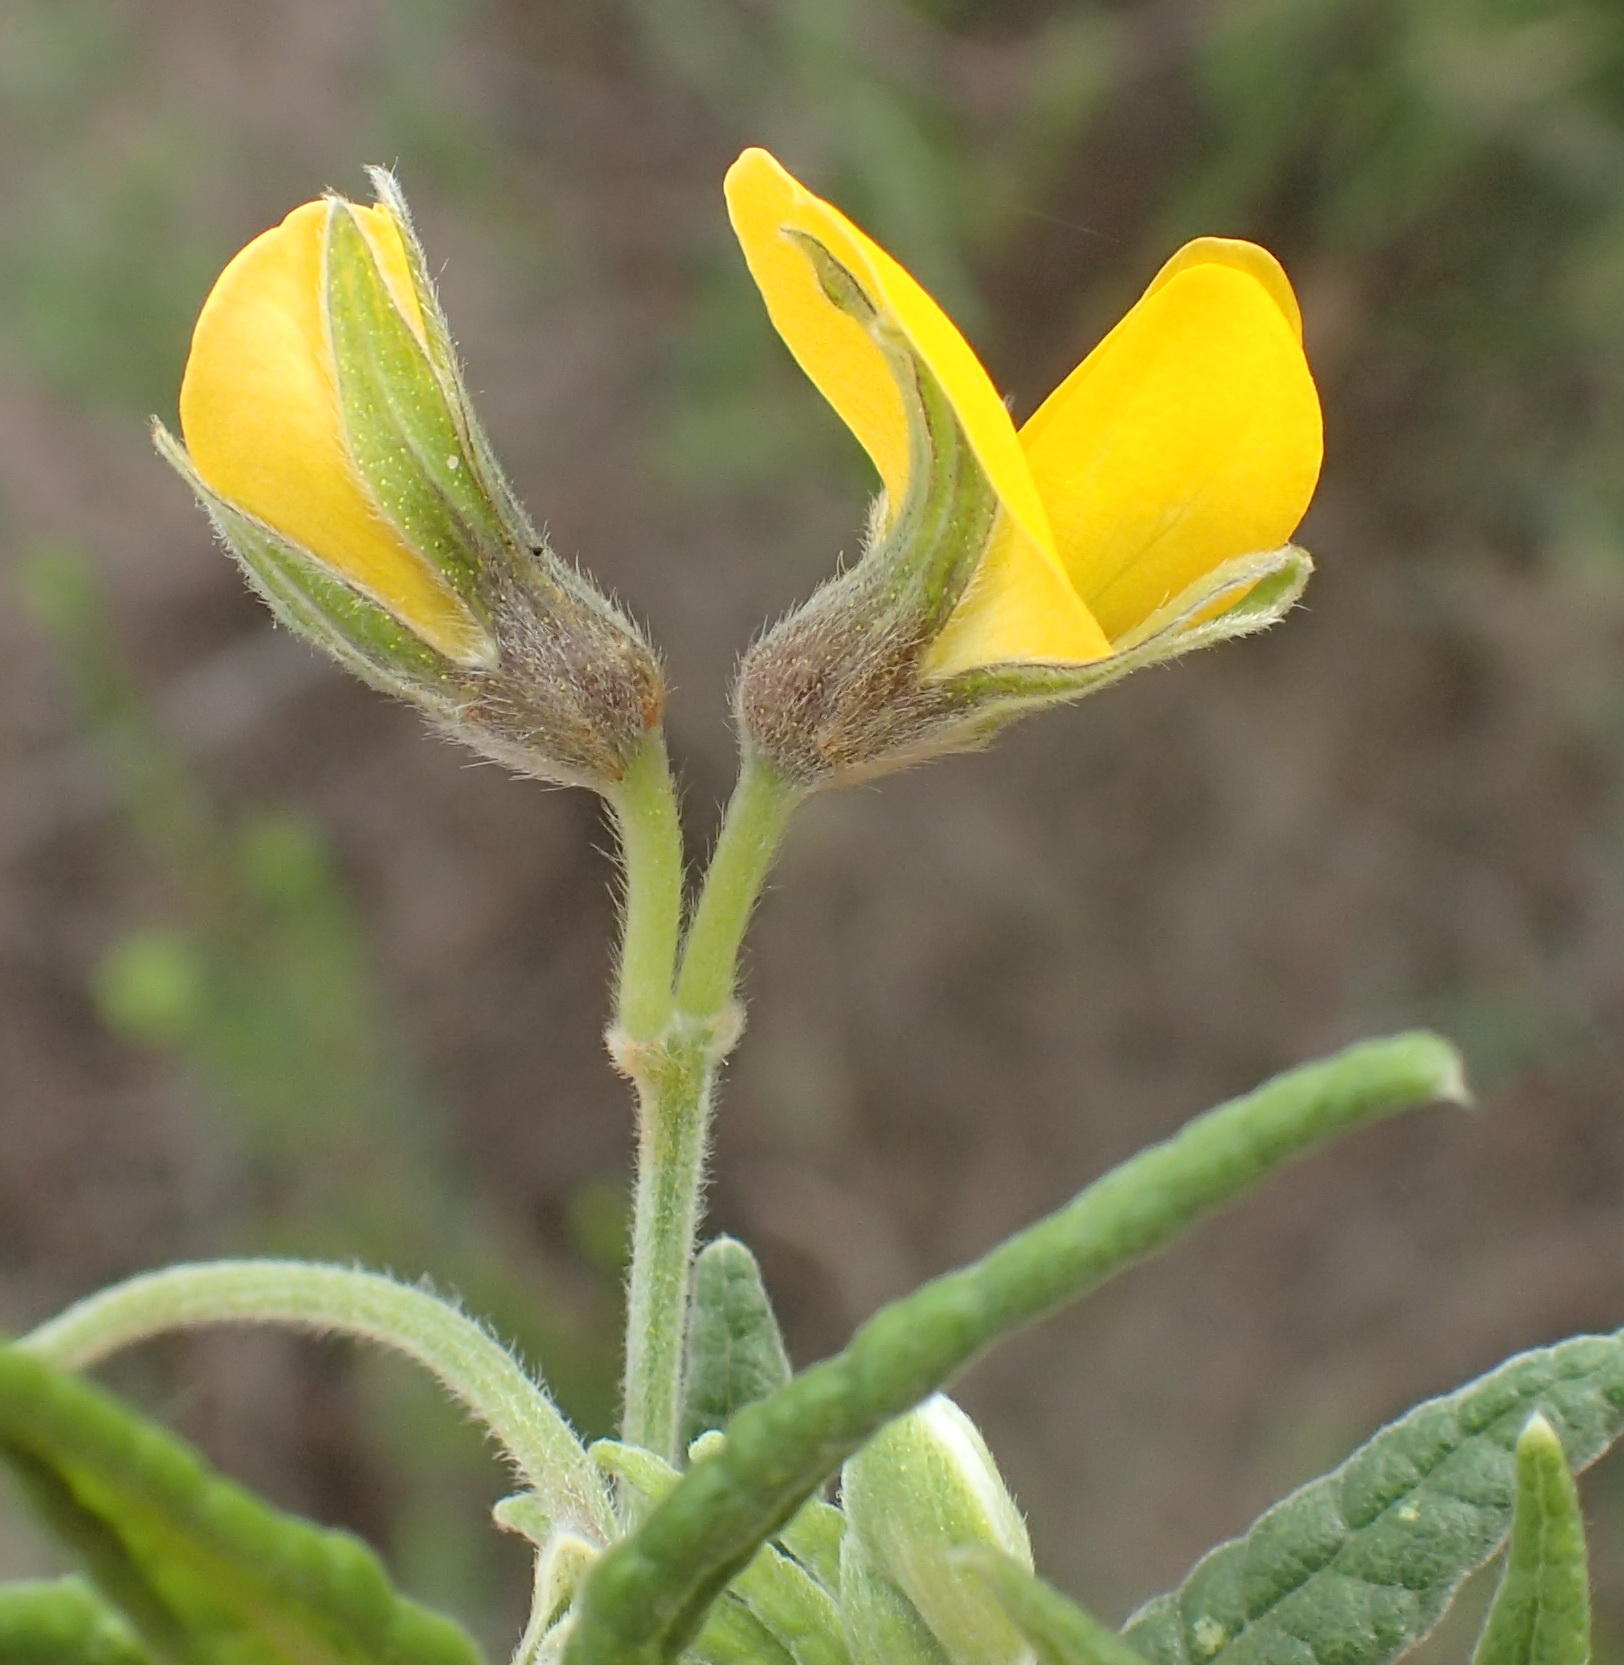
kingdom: Plantae
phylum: Tracheophyta
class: Magnoliopsida
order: Fabales
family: Fabaceae
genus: Rhynchosia
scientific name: Rhynchosia chrysoscias
